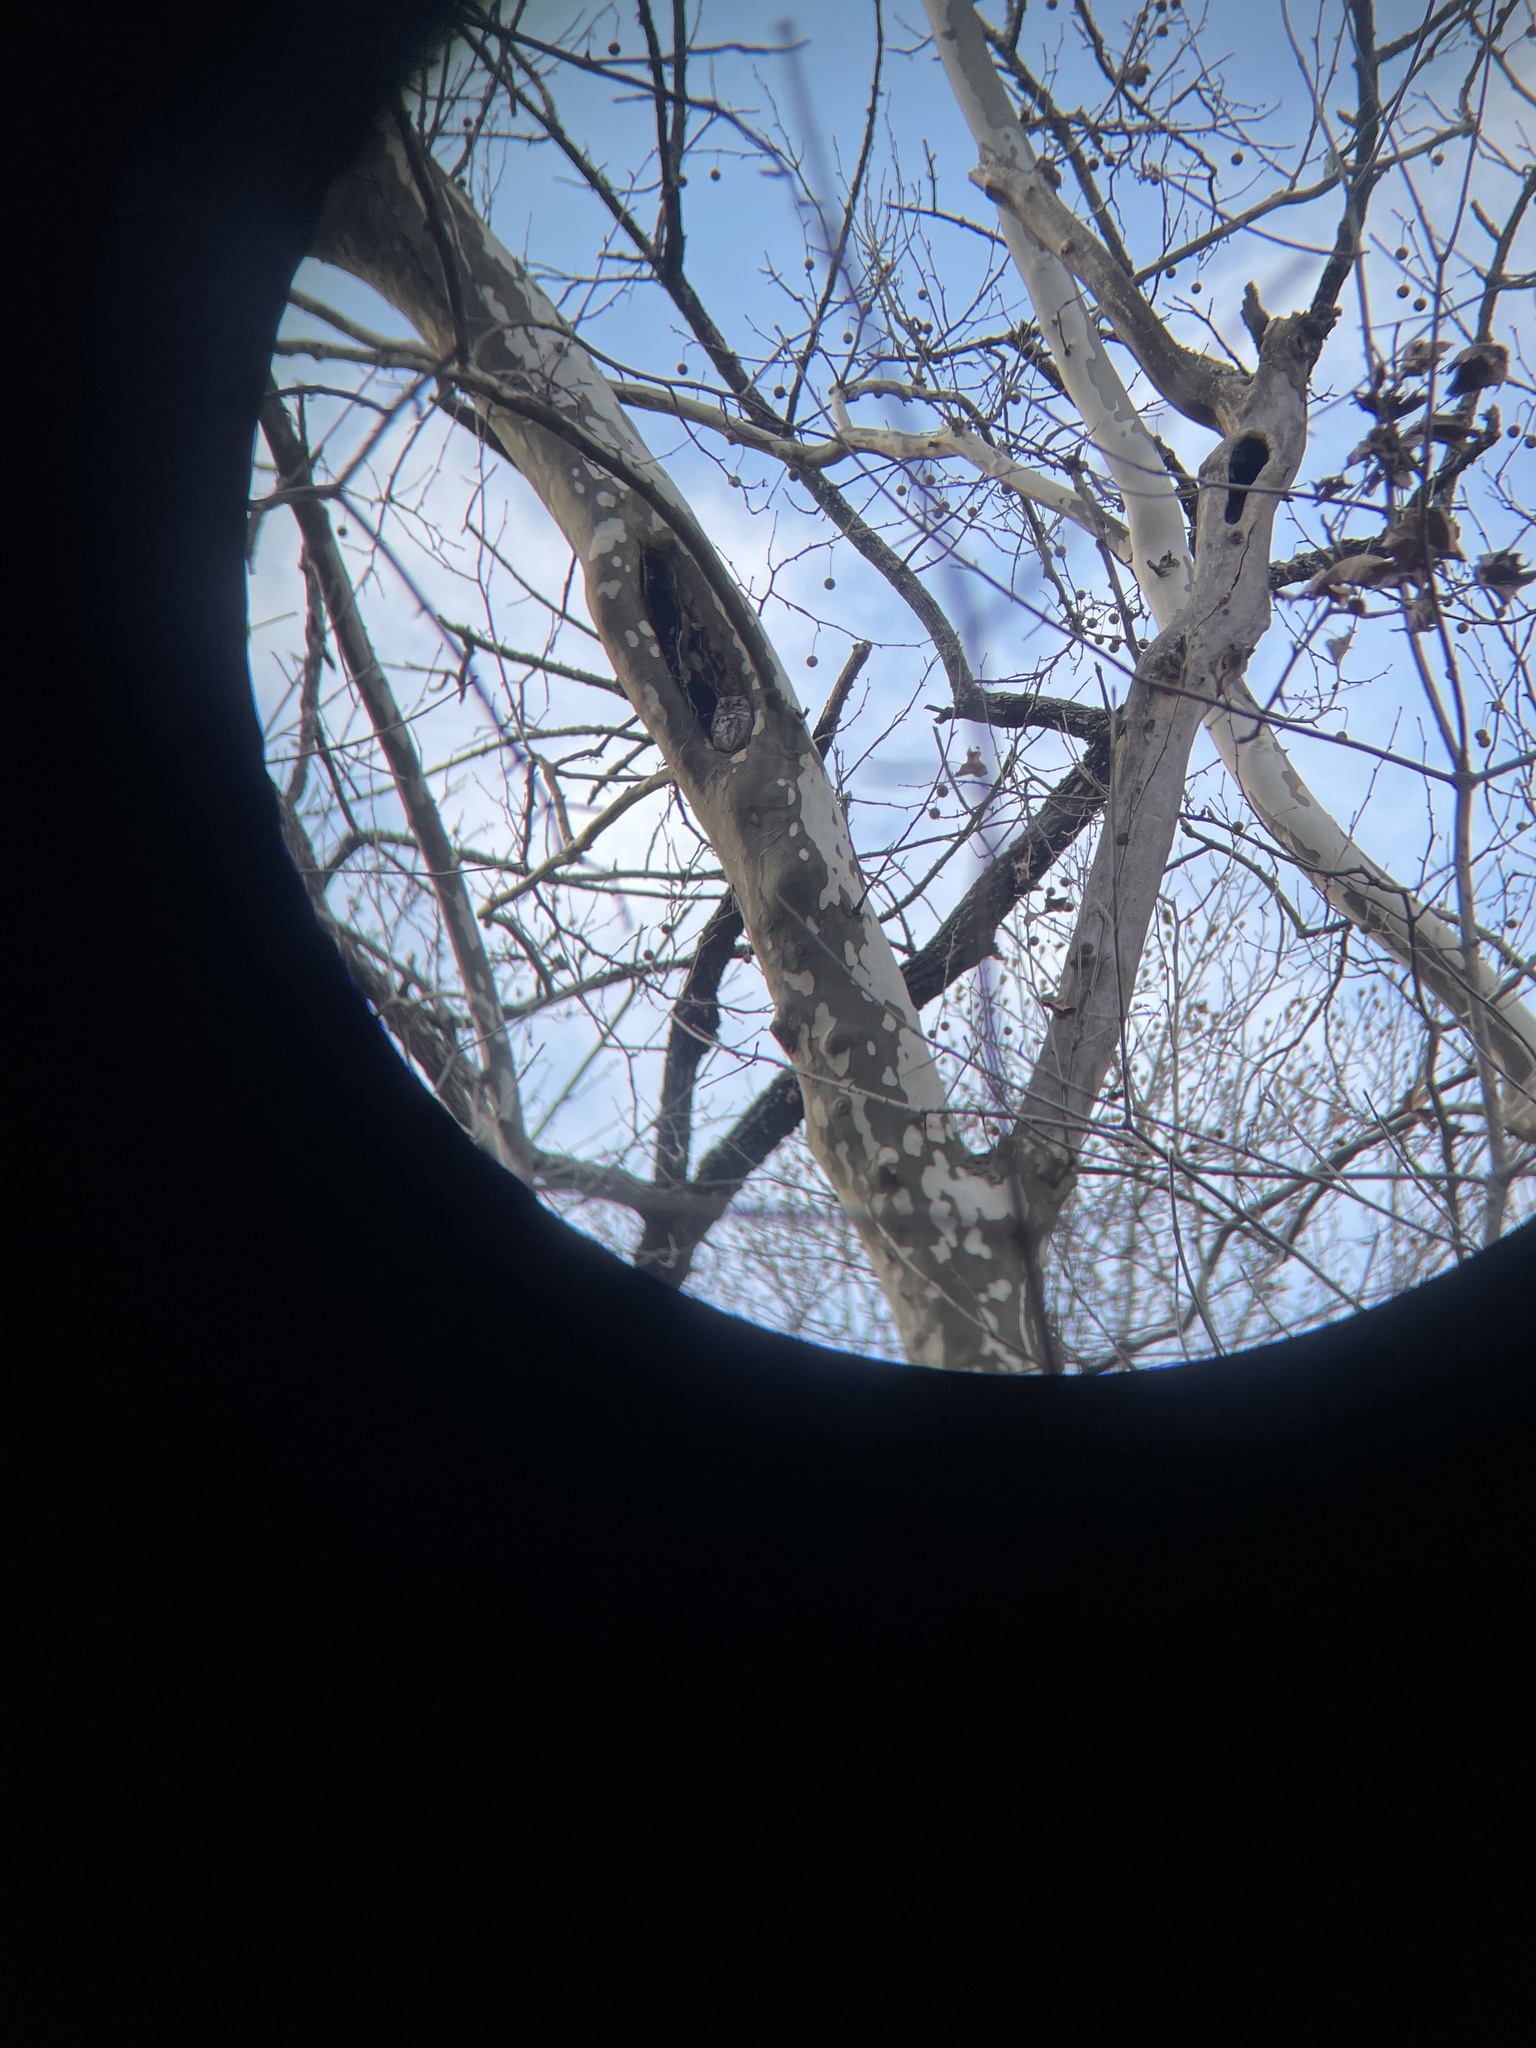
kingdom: Animalia
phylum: Chordata
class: Aves
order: Strigiformes
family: Strigidae
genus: Megascops
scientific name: Megascops asio
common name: Eastern screech-owl
